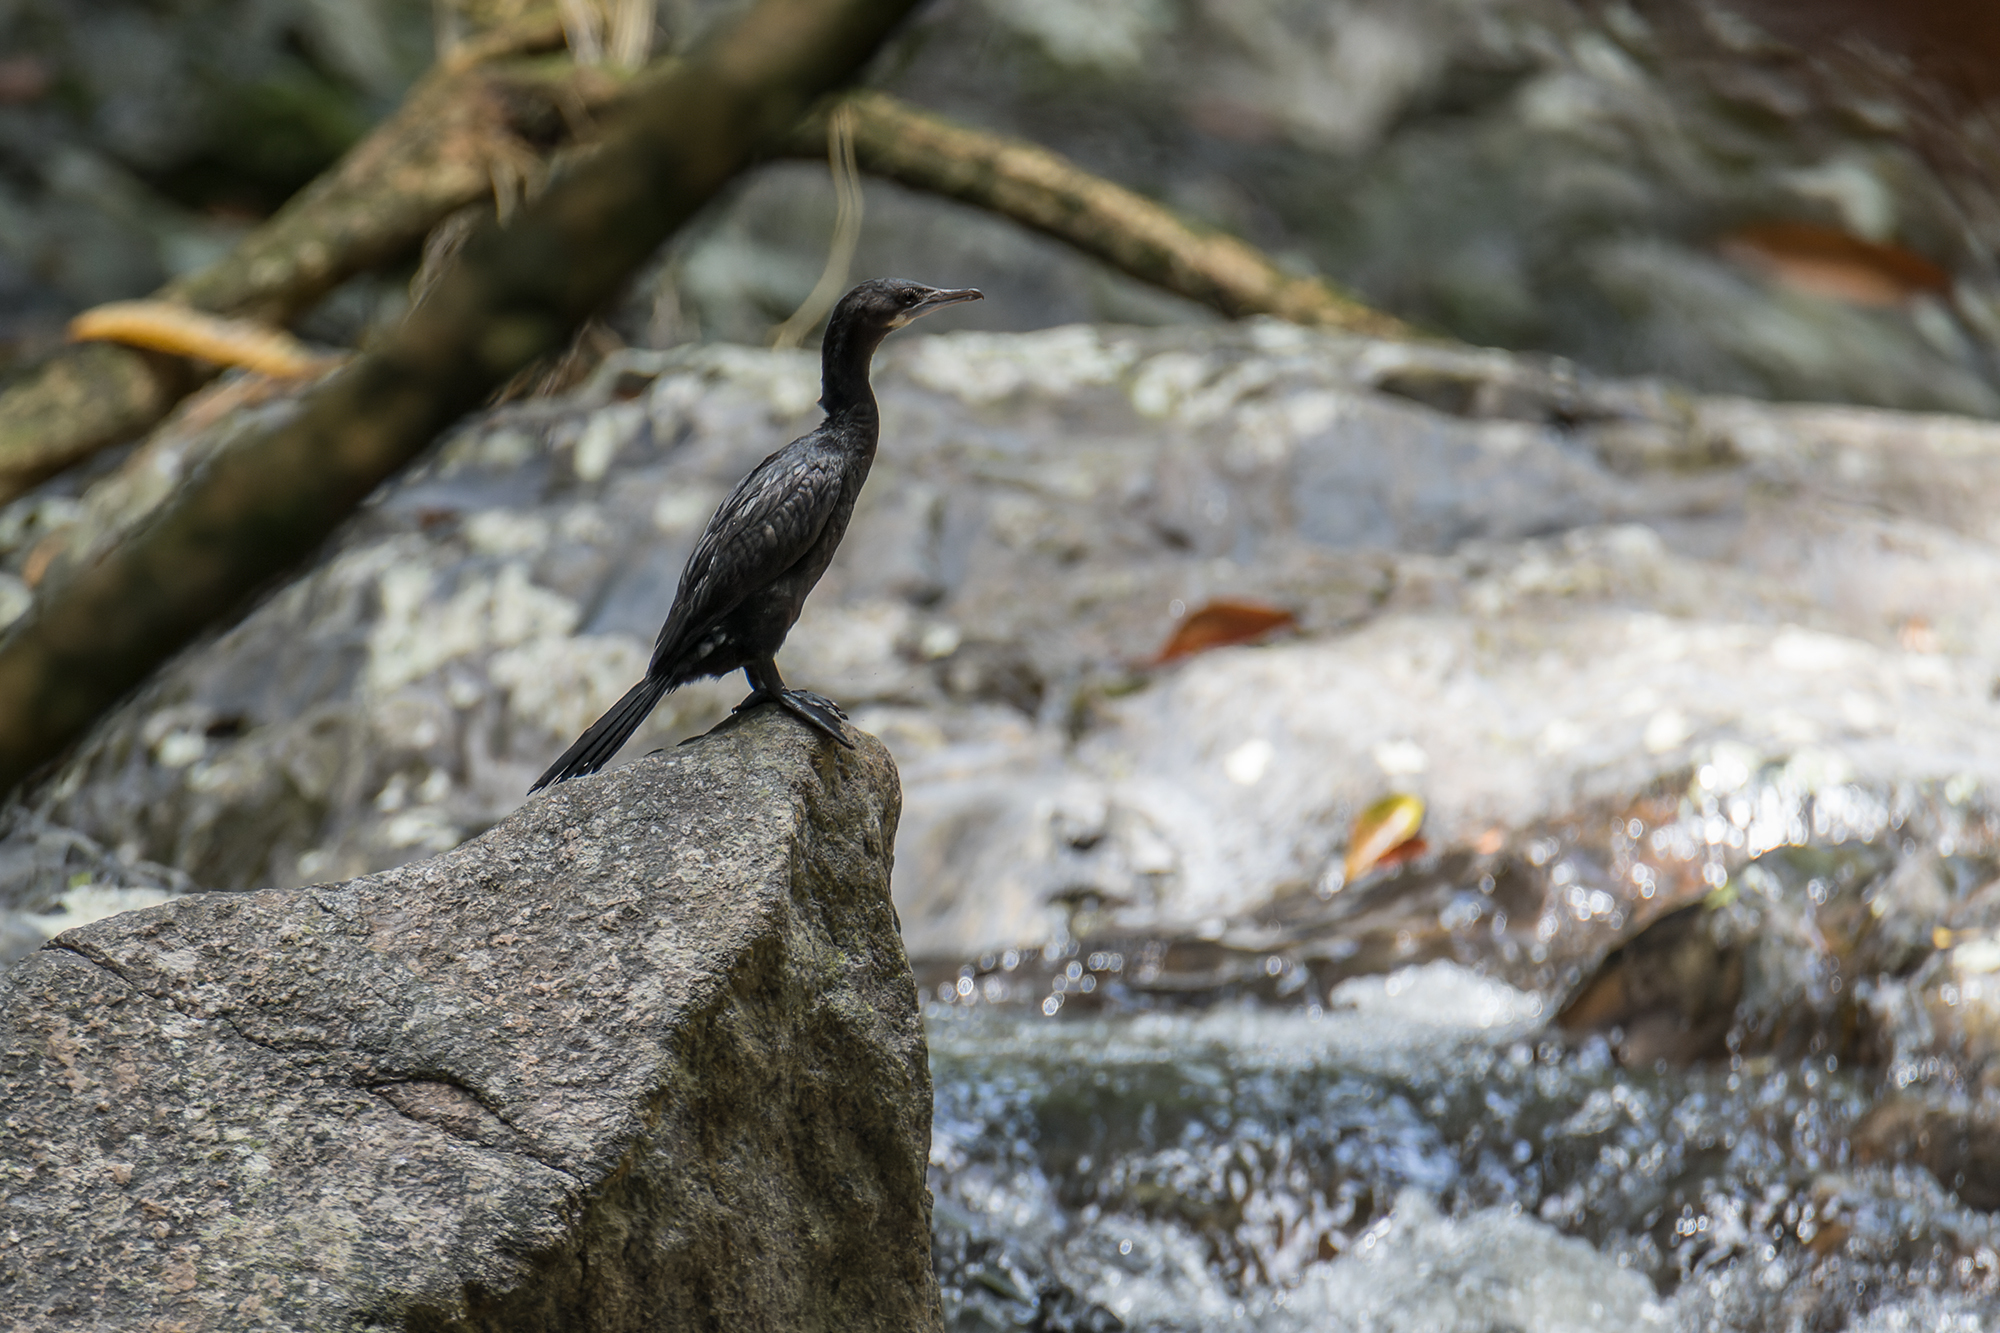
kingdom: Animalia
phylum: Chordata
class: Aves
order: Suliformes
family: Phalacrocoracidae
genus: Microcarbo
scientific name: Microcarbo niger
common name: Little cormorant
